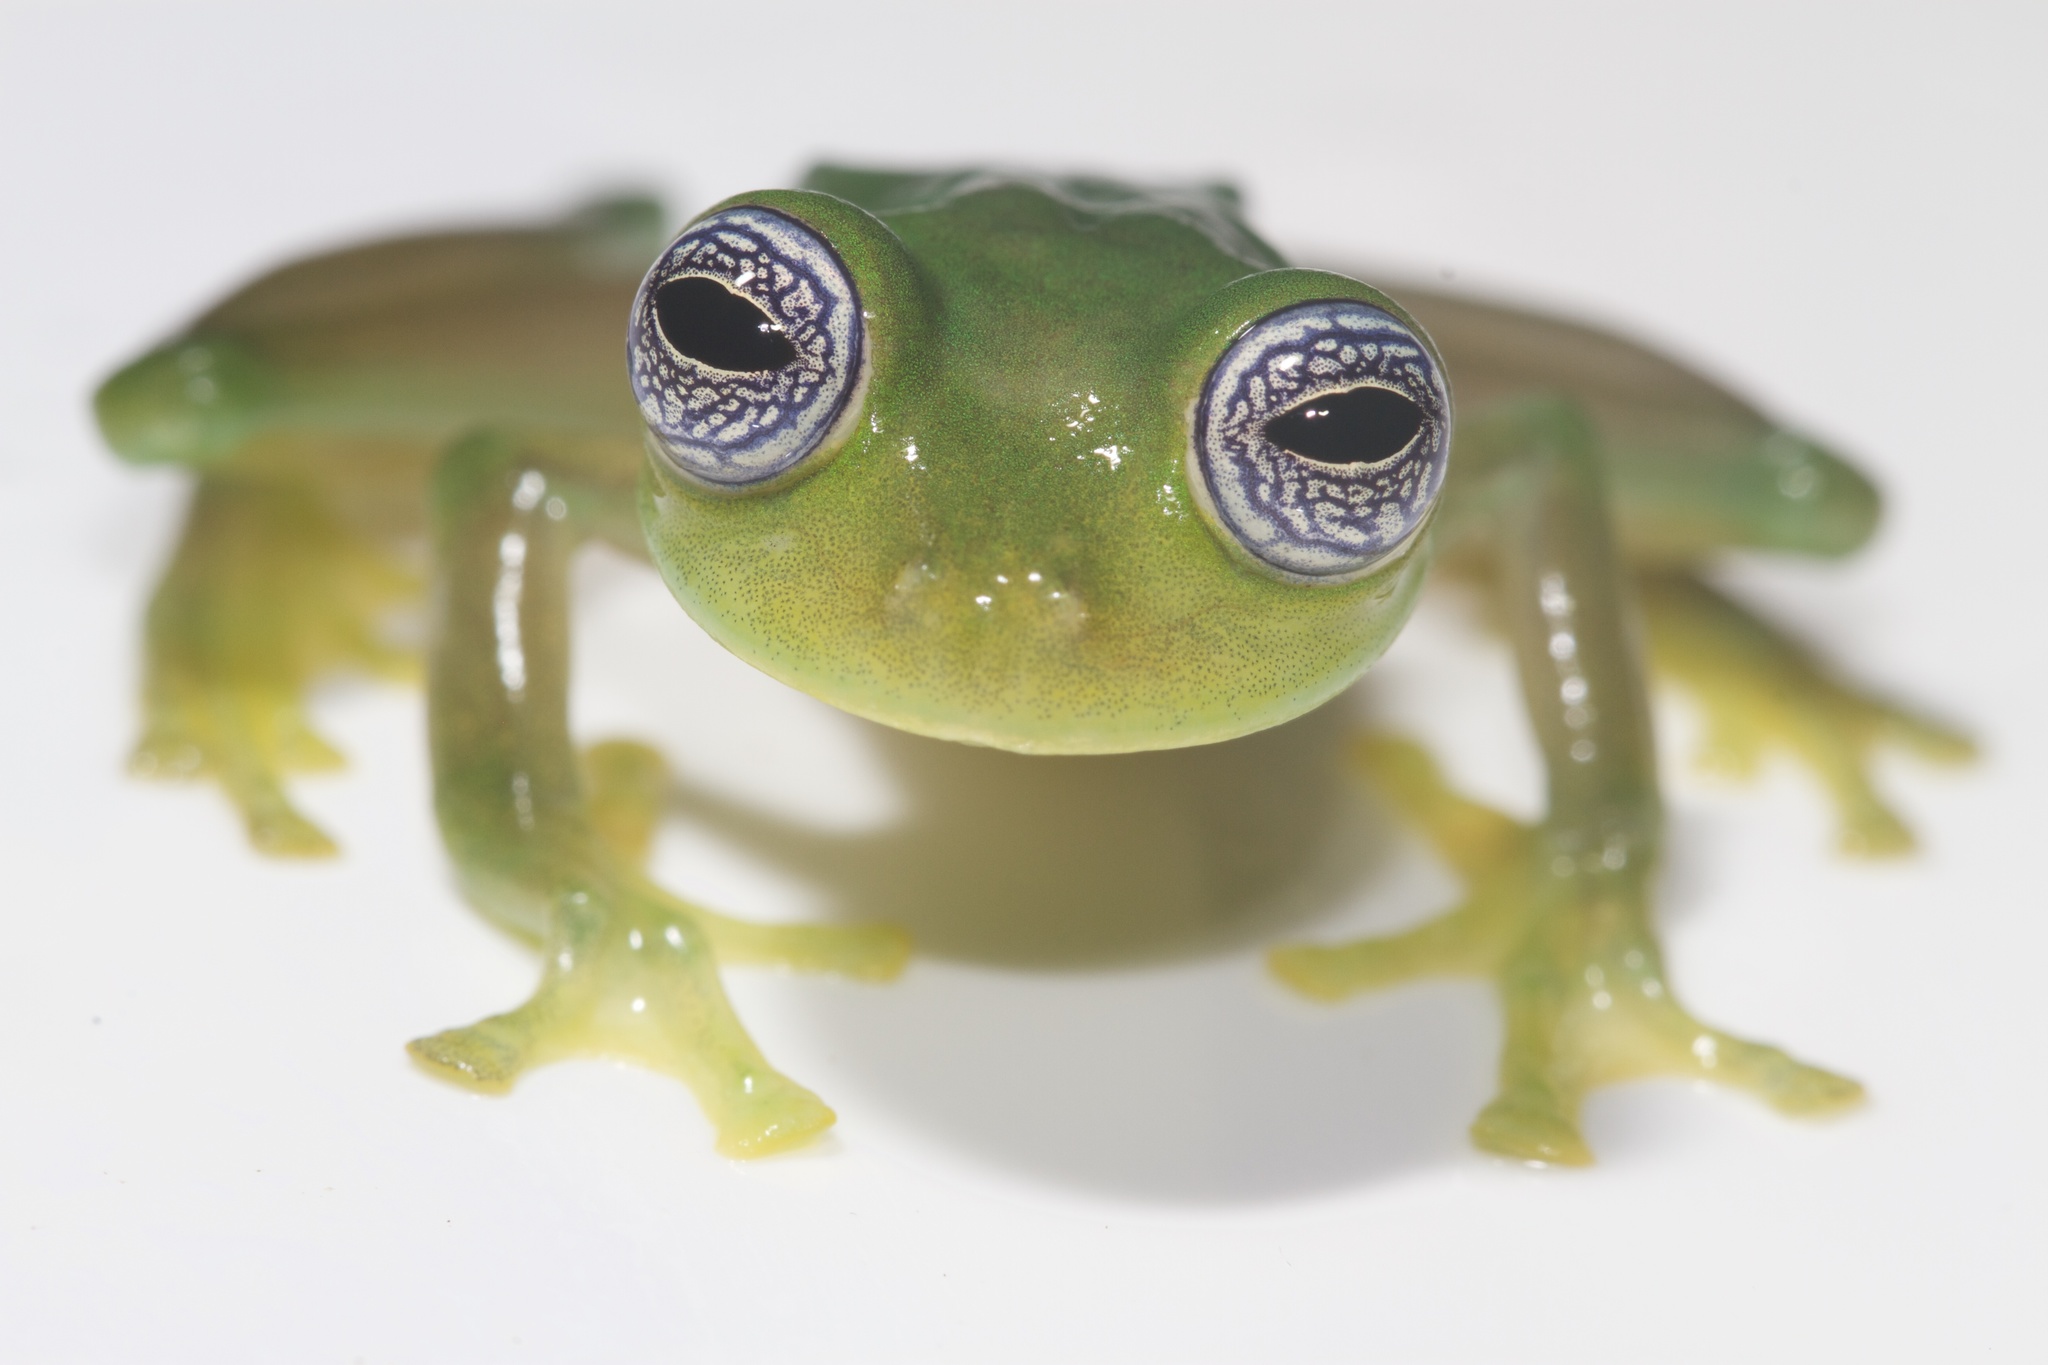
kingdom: Animalia
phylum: Chordata
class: Amphibia
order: Anura
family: Centrolenidae
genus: Sachatamia
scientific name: Sachatamia ilex
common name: Rana de cristal de ojo esplendoroso
